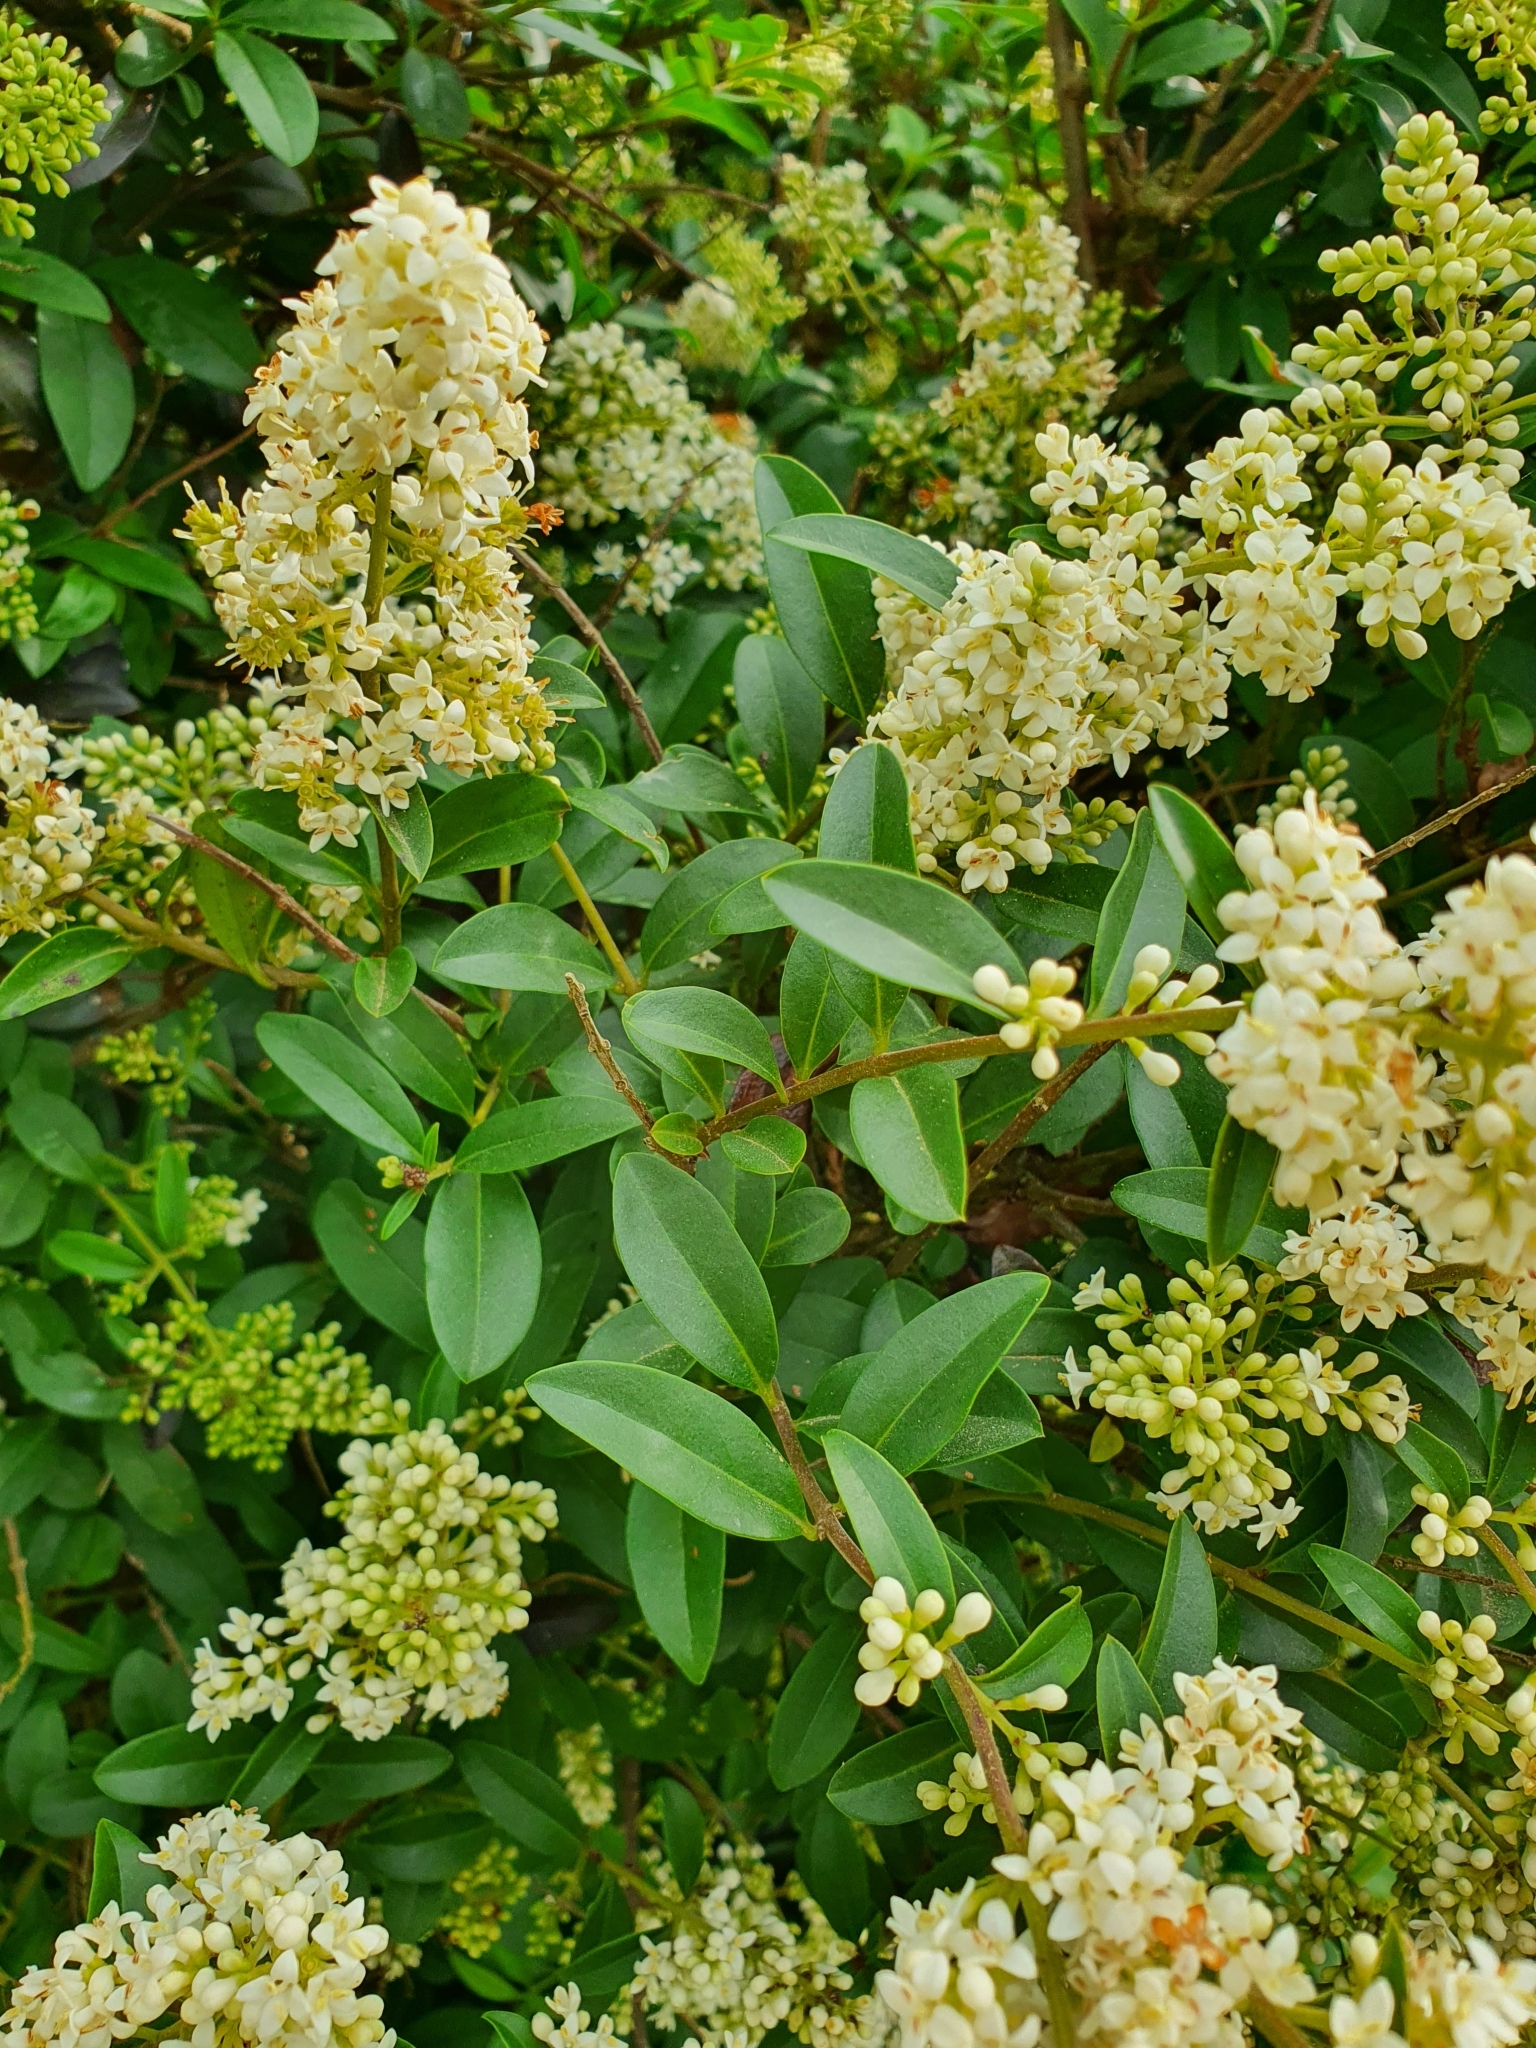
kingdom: Plantae
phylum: Tracheophyta
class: Magnoliopsida
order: Lamiales
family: Oleaceae
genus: Ligustrum
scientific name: Ligustrum vulgare
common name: Wild privet
